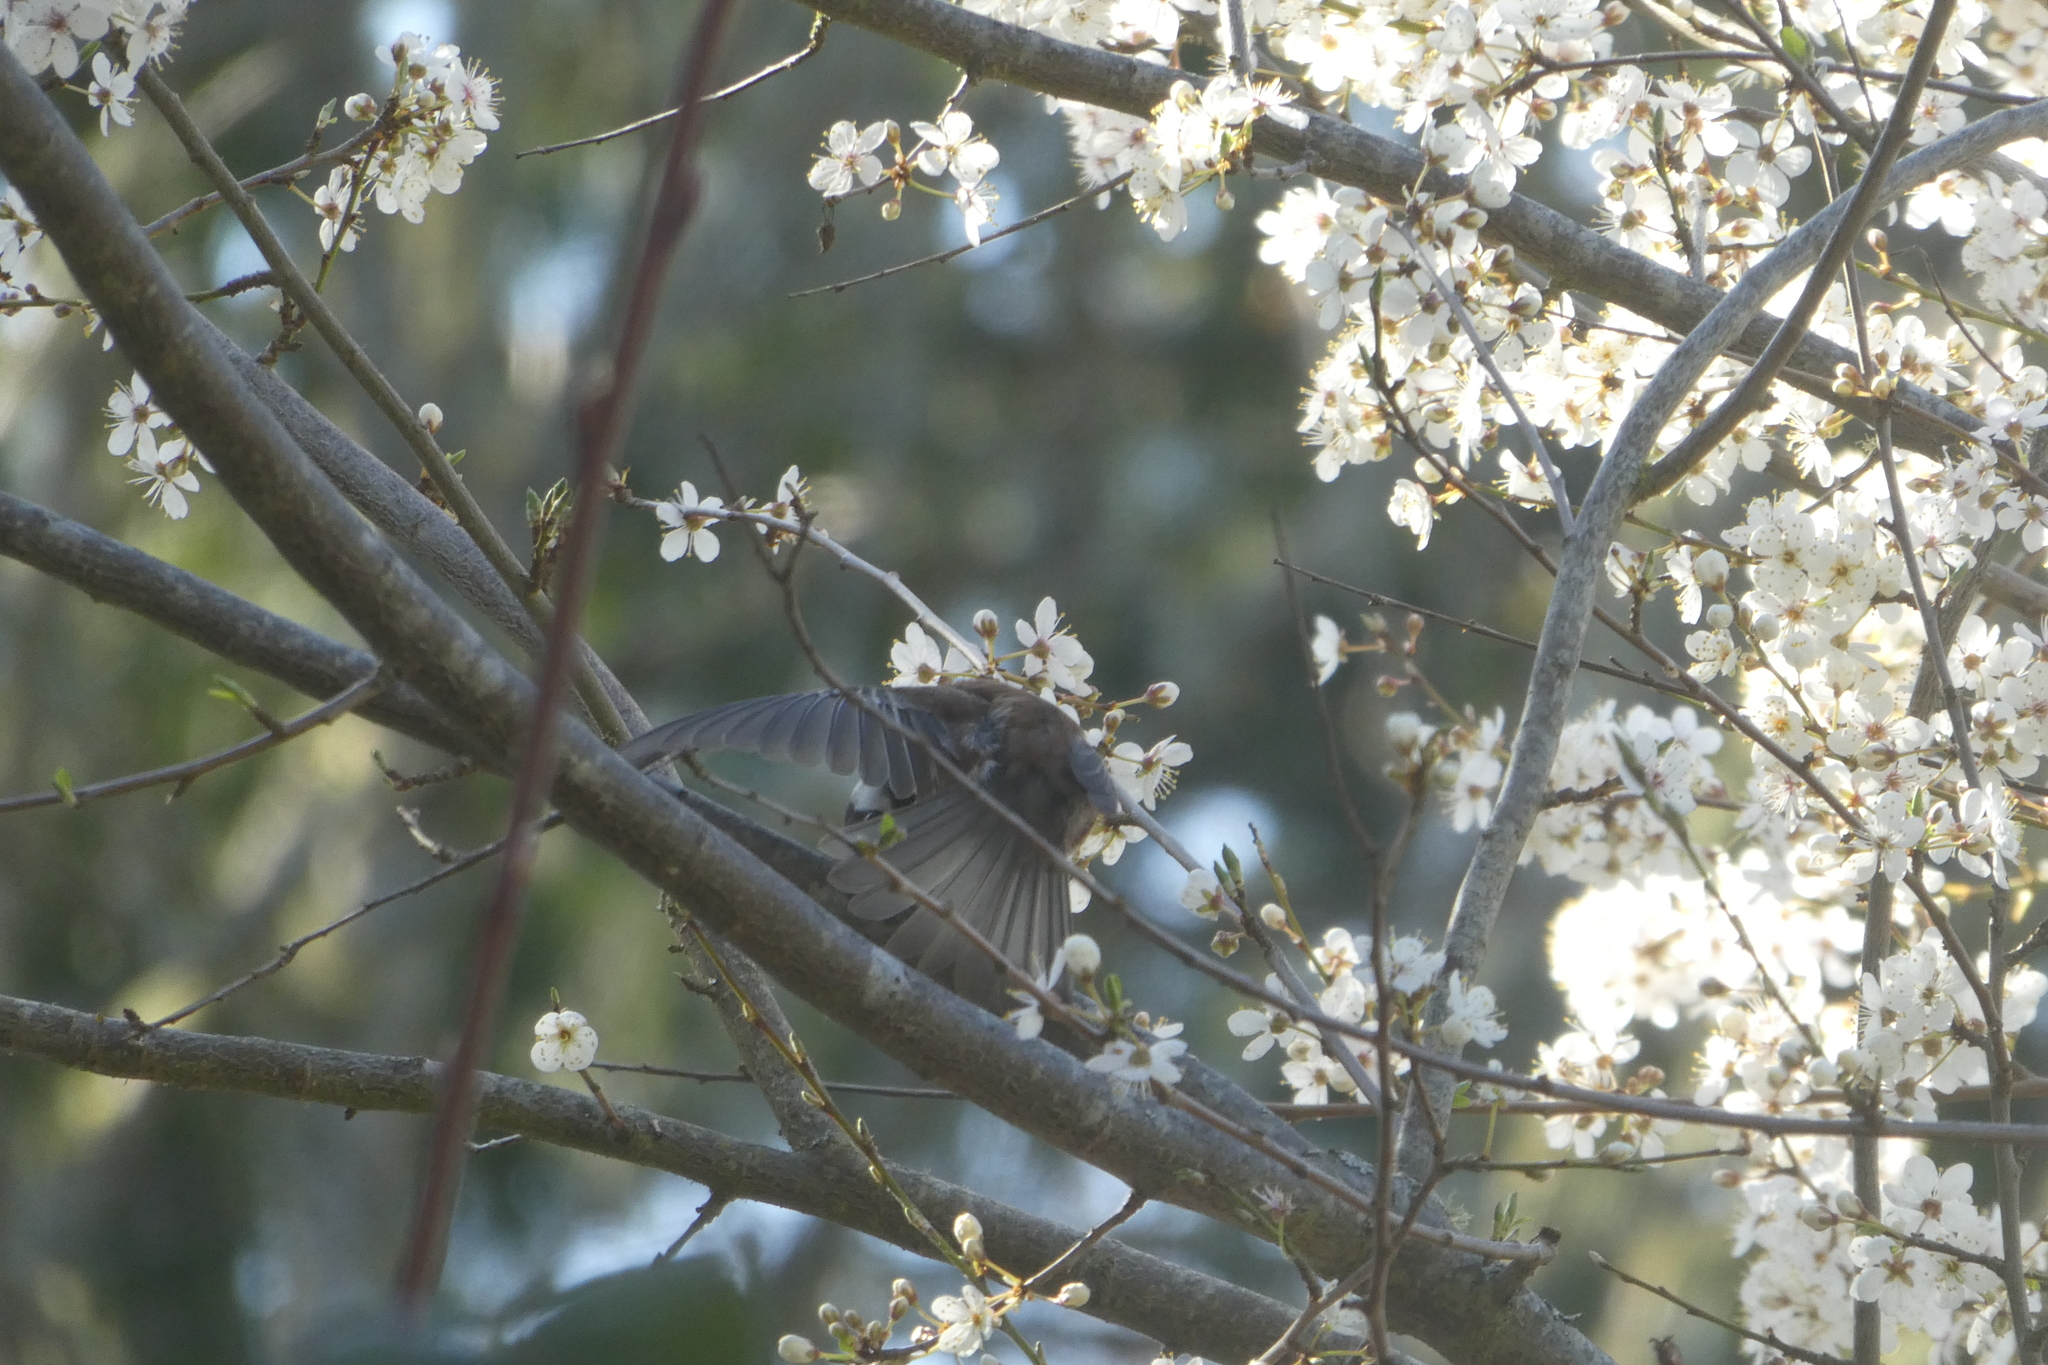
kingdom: Animalia
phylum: Chordata
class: Aves
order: Passeriformes
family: Paridae
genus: Poecile
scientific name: Poecile rufescens
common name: Chestnut-backed chickadee
